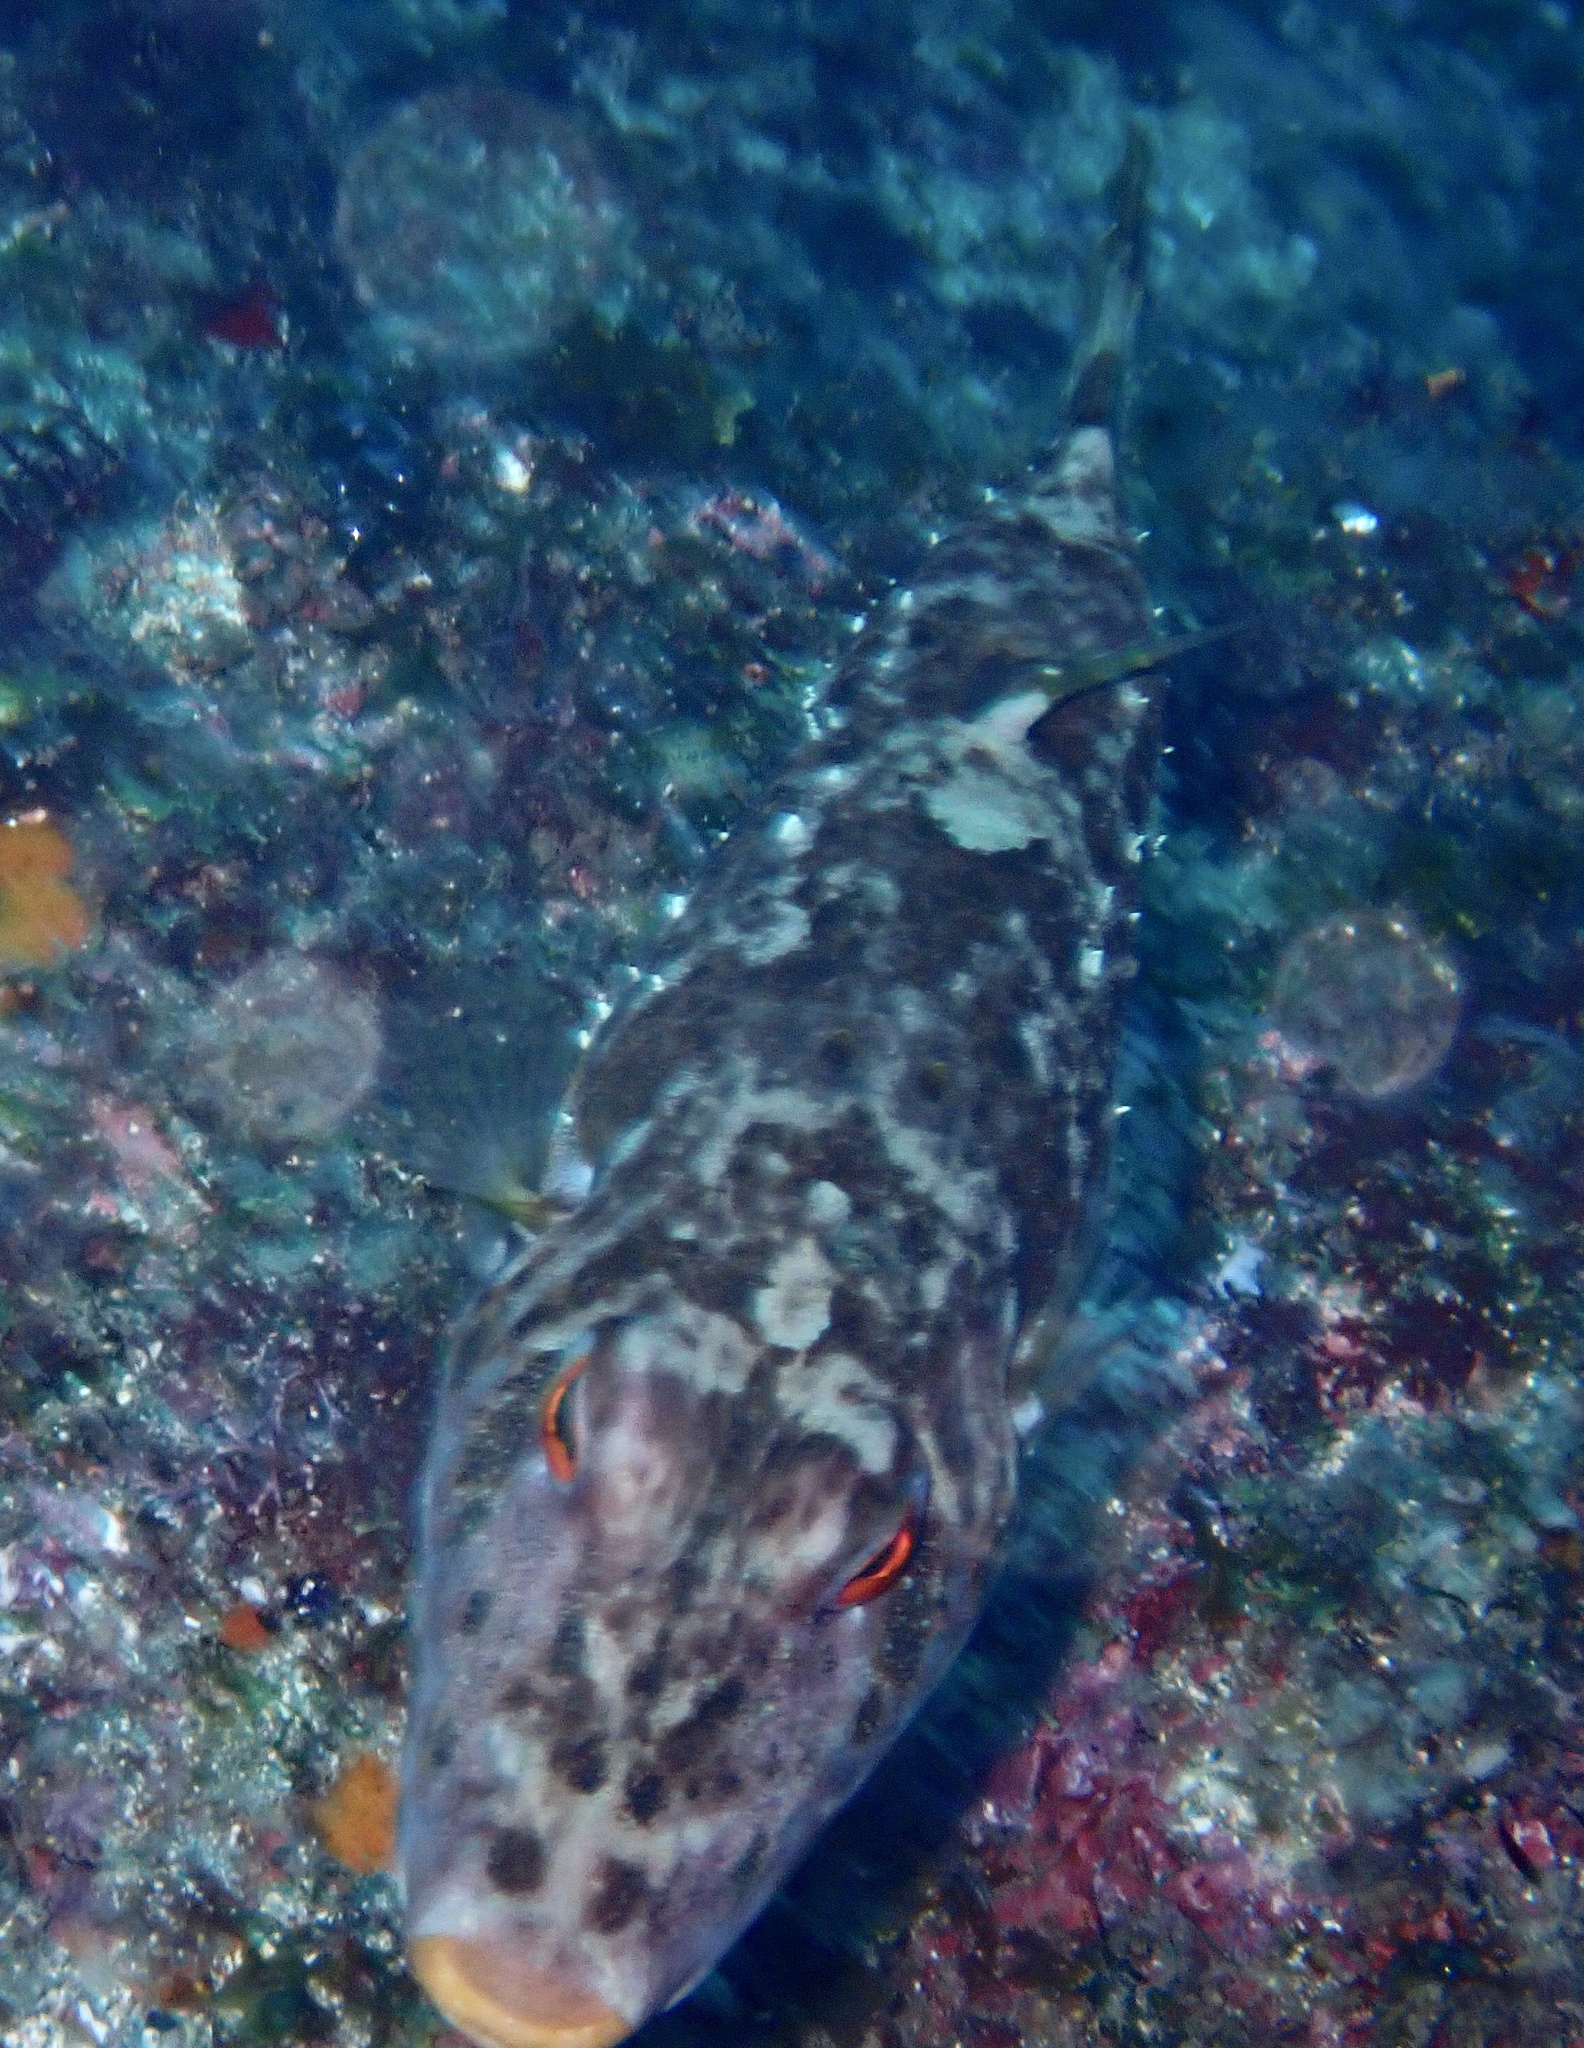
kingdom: Animalia
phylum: Chordata
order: Tetraodontiformes
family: Tetraodontidae
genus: Sphoeroides
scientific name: Sphoeroides marmoratus
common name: Guinean puffer
